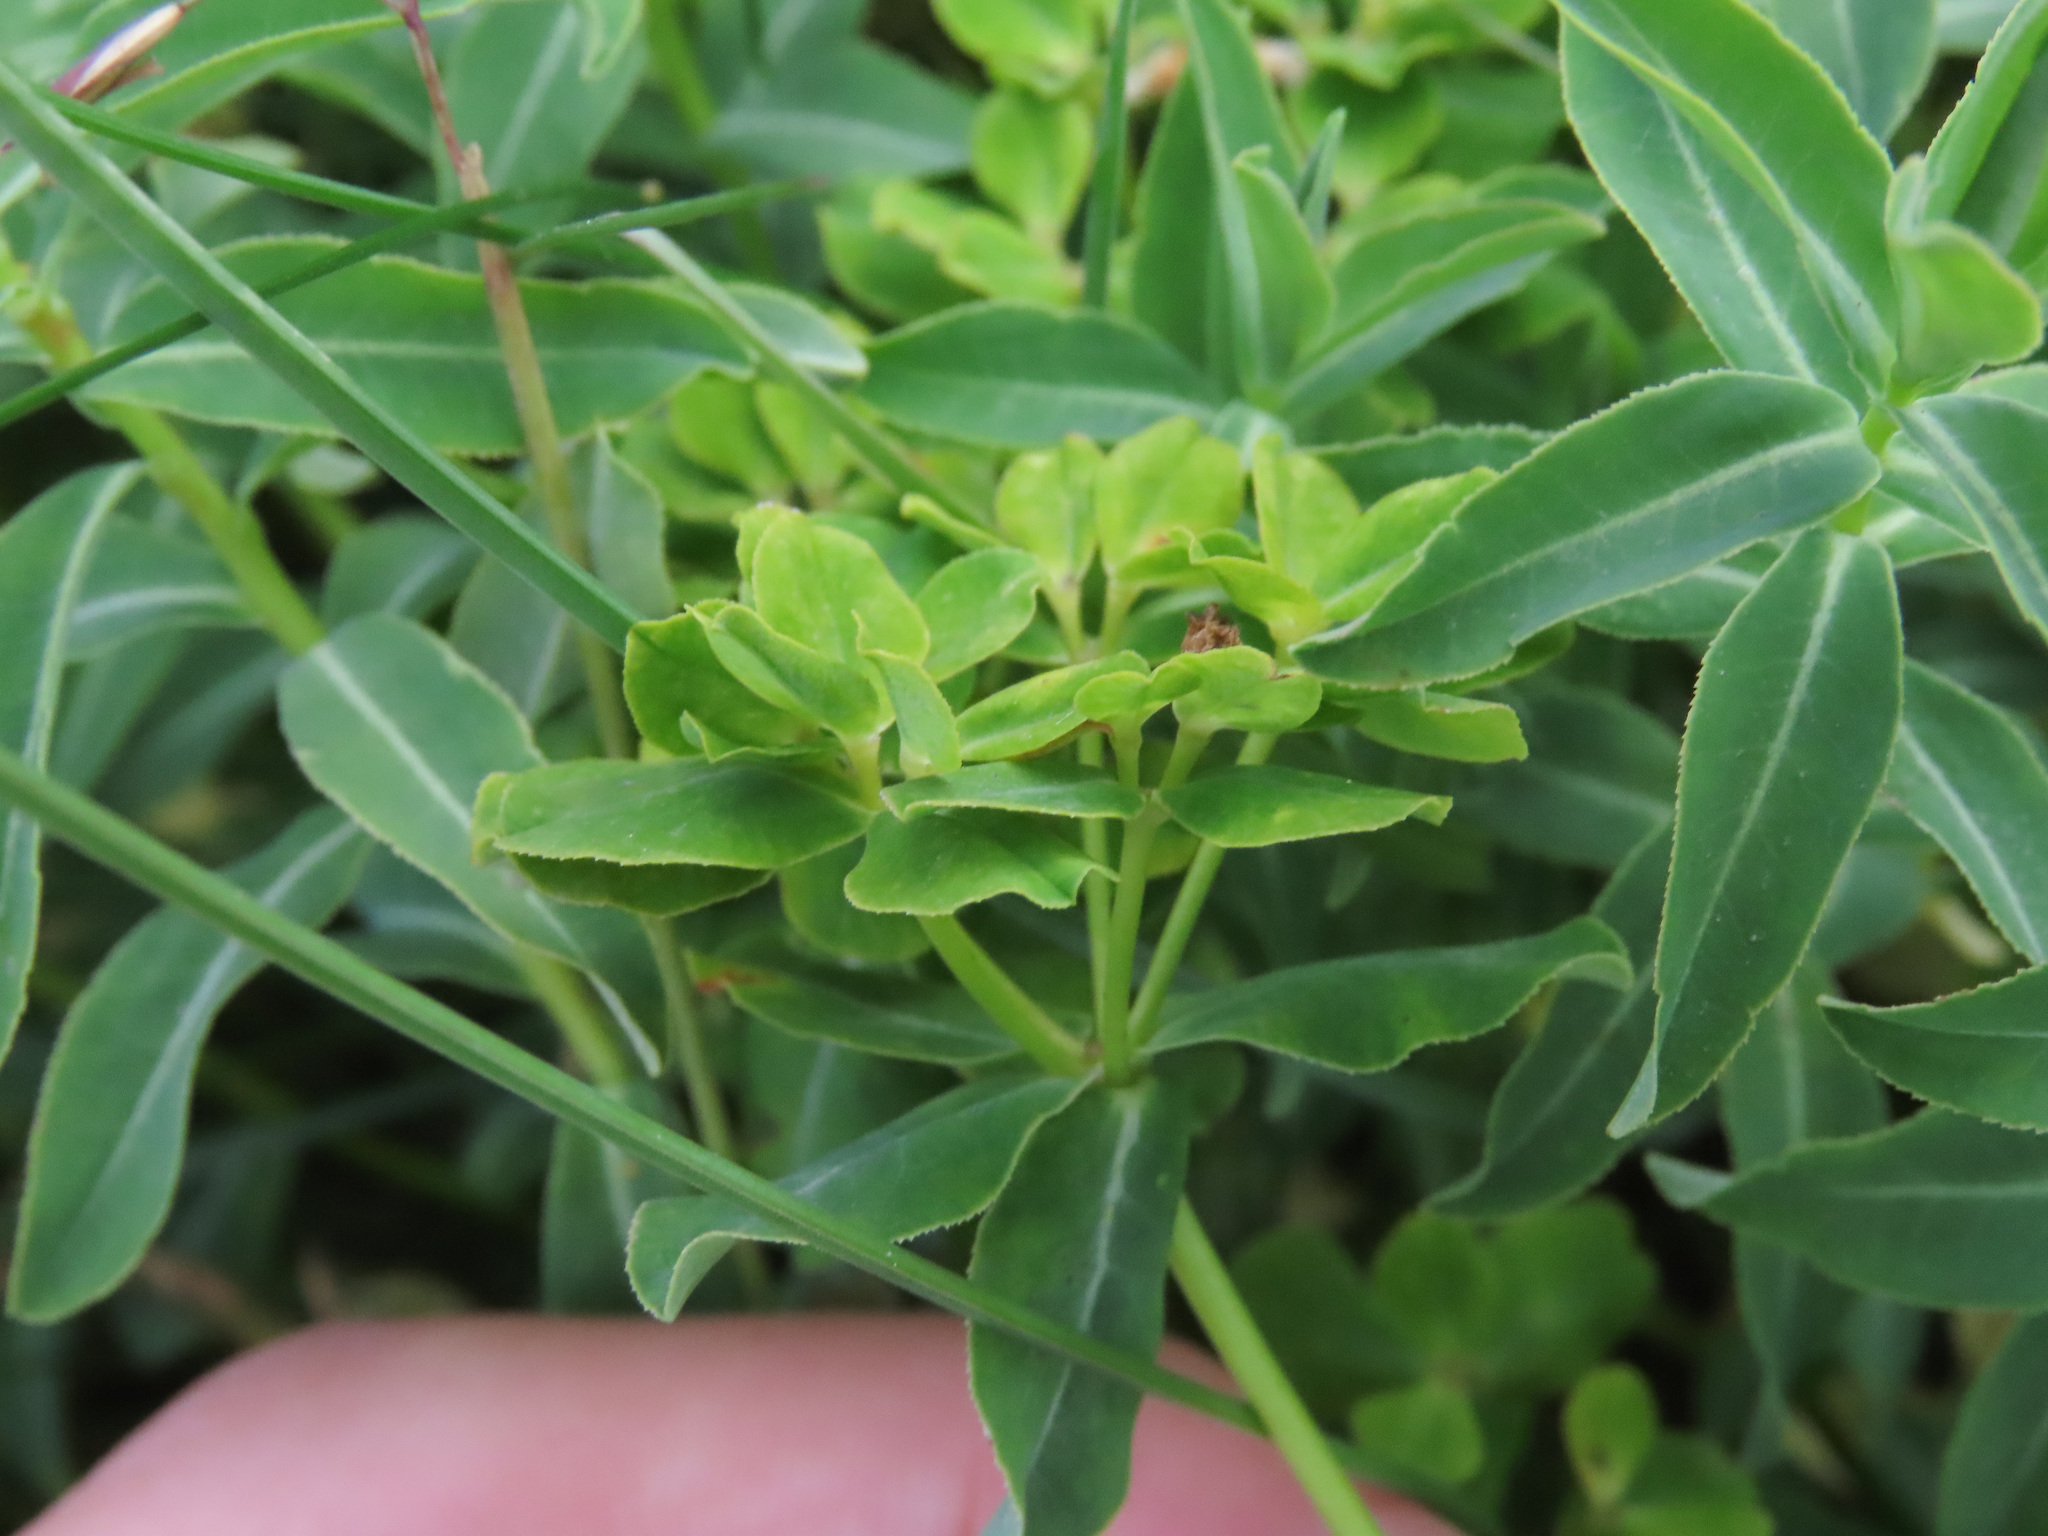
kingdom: Plantae
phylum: Tracheophyta
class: Magnoliopsida
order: Malpighiales
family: Euphorbiaceae
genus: Euphorbia
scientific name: Euphorbia gasparrinii
